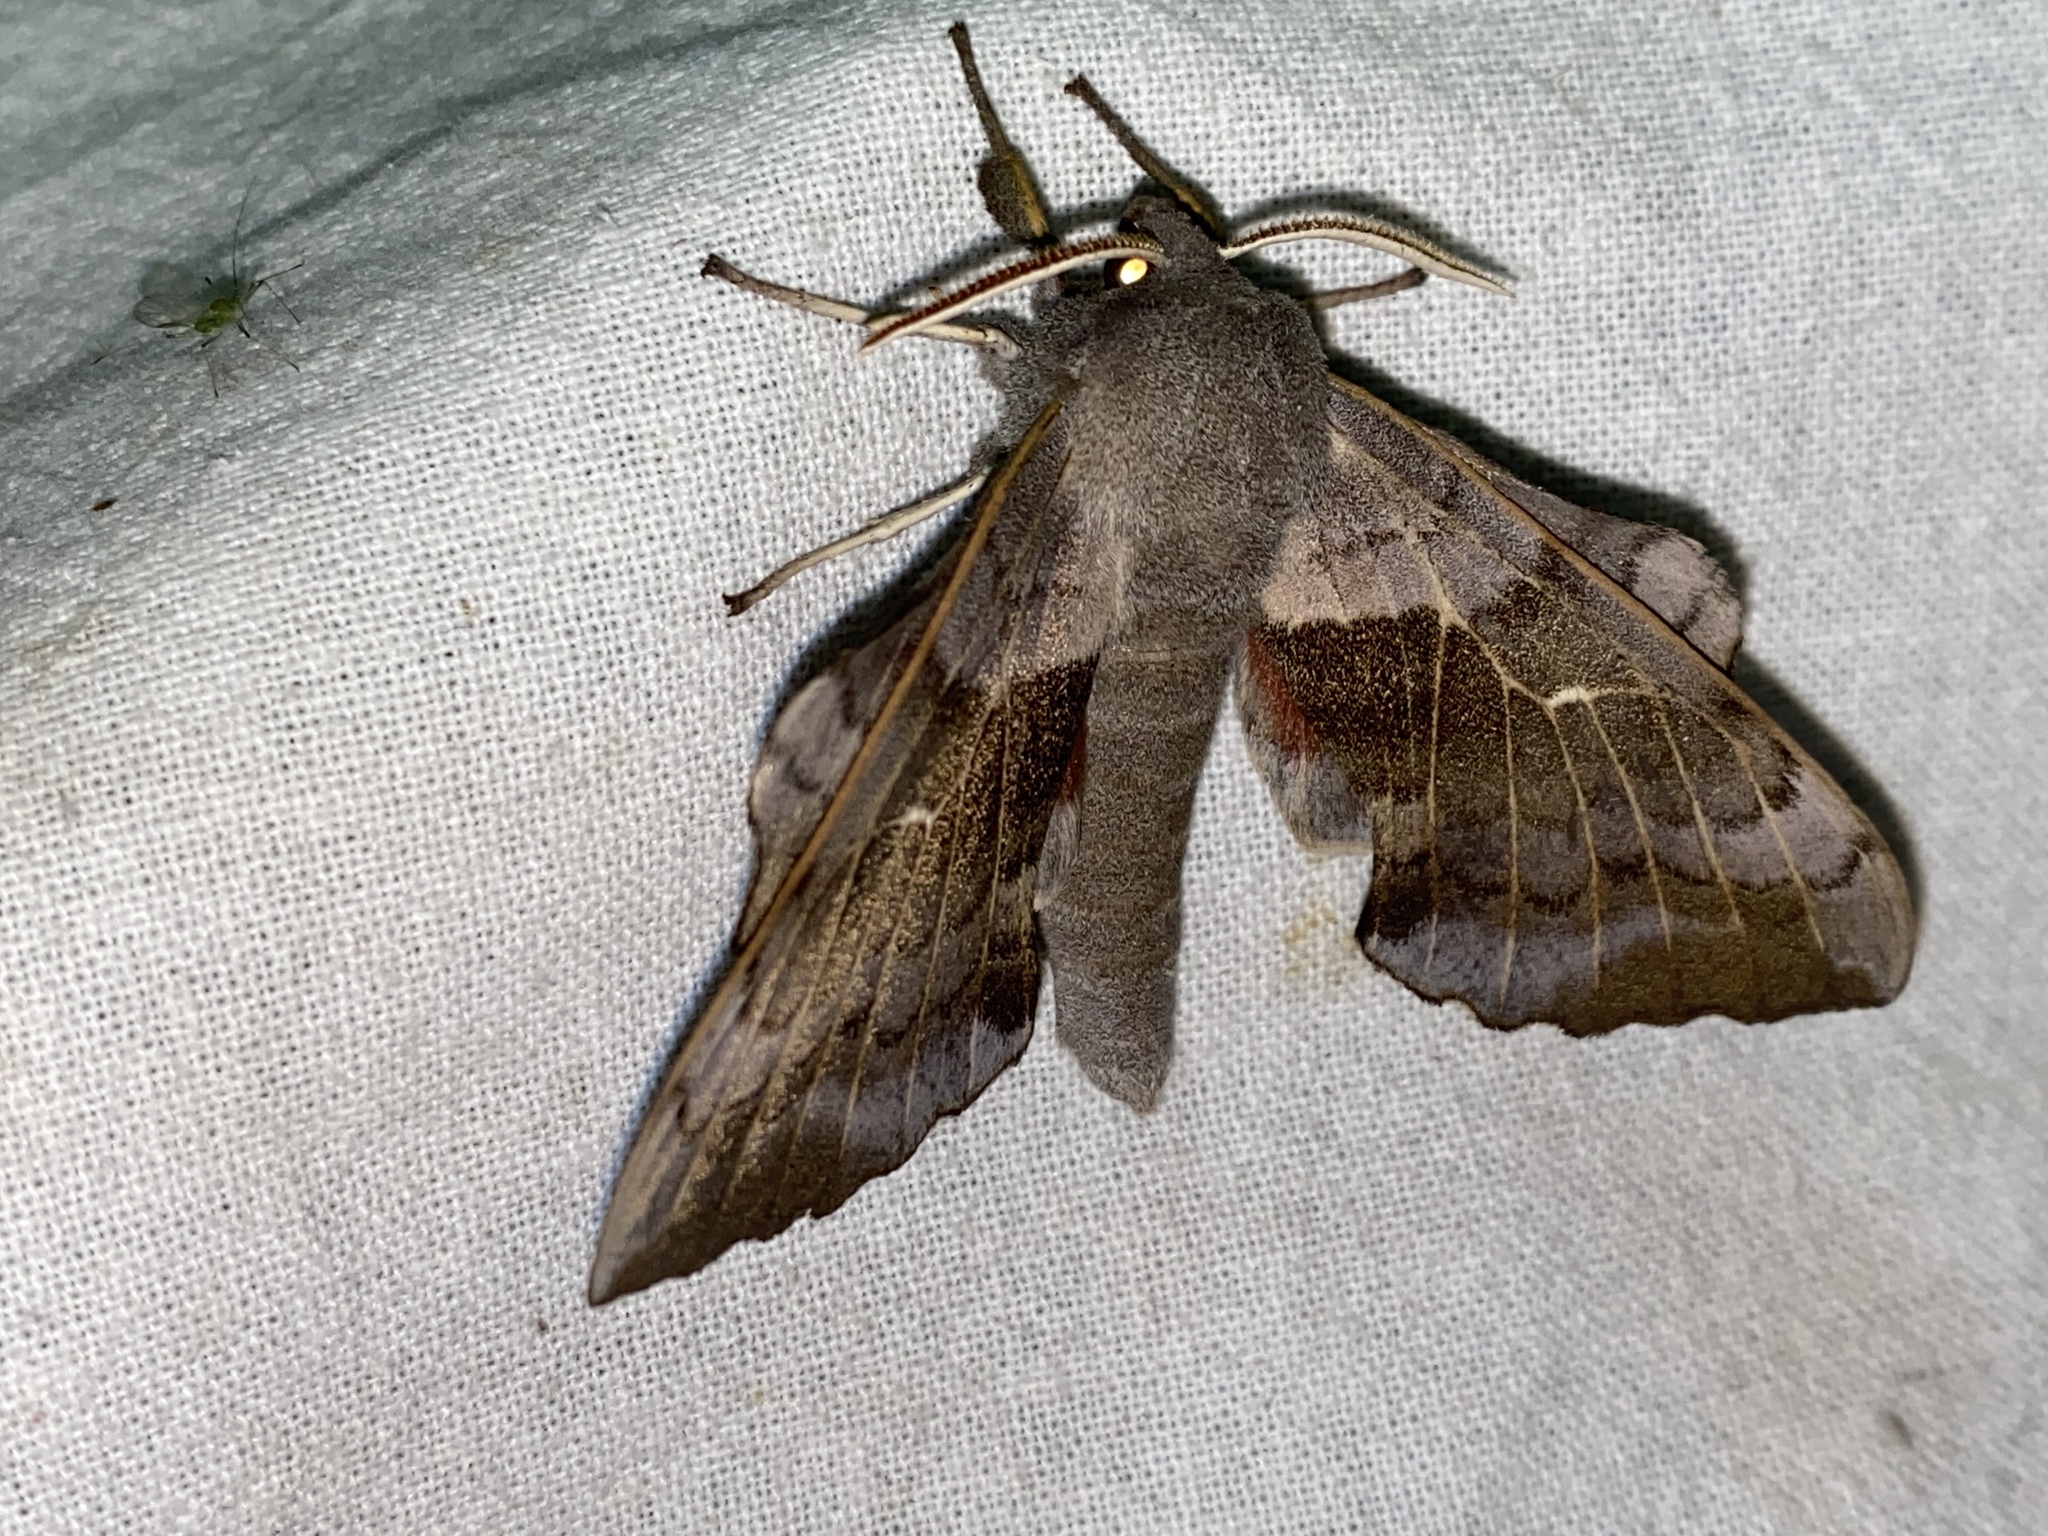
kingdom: Animalia
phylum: Arthropoda
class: Insecta
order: Lepidoptera
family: Sphingidae
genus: Laothoe
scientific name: Laothoe populi
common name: Poplar hawk-moth
